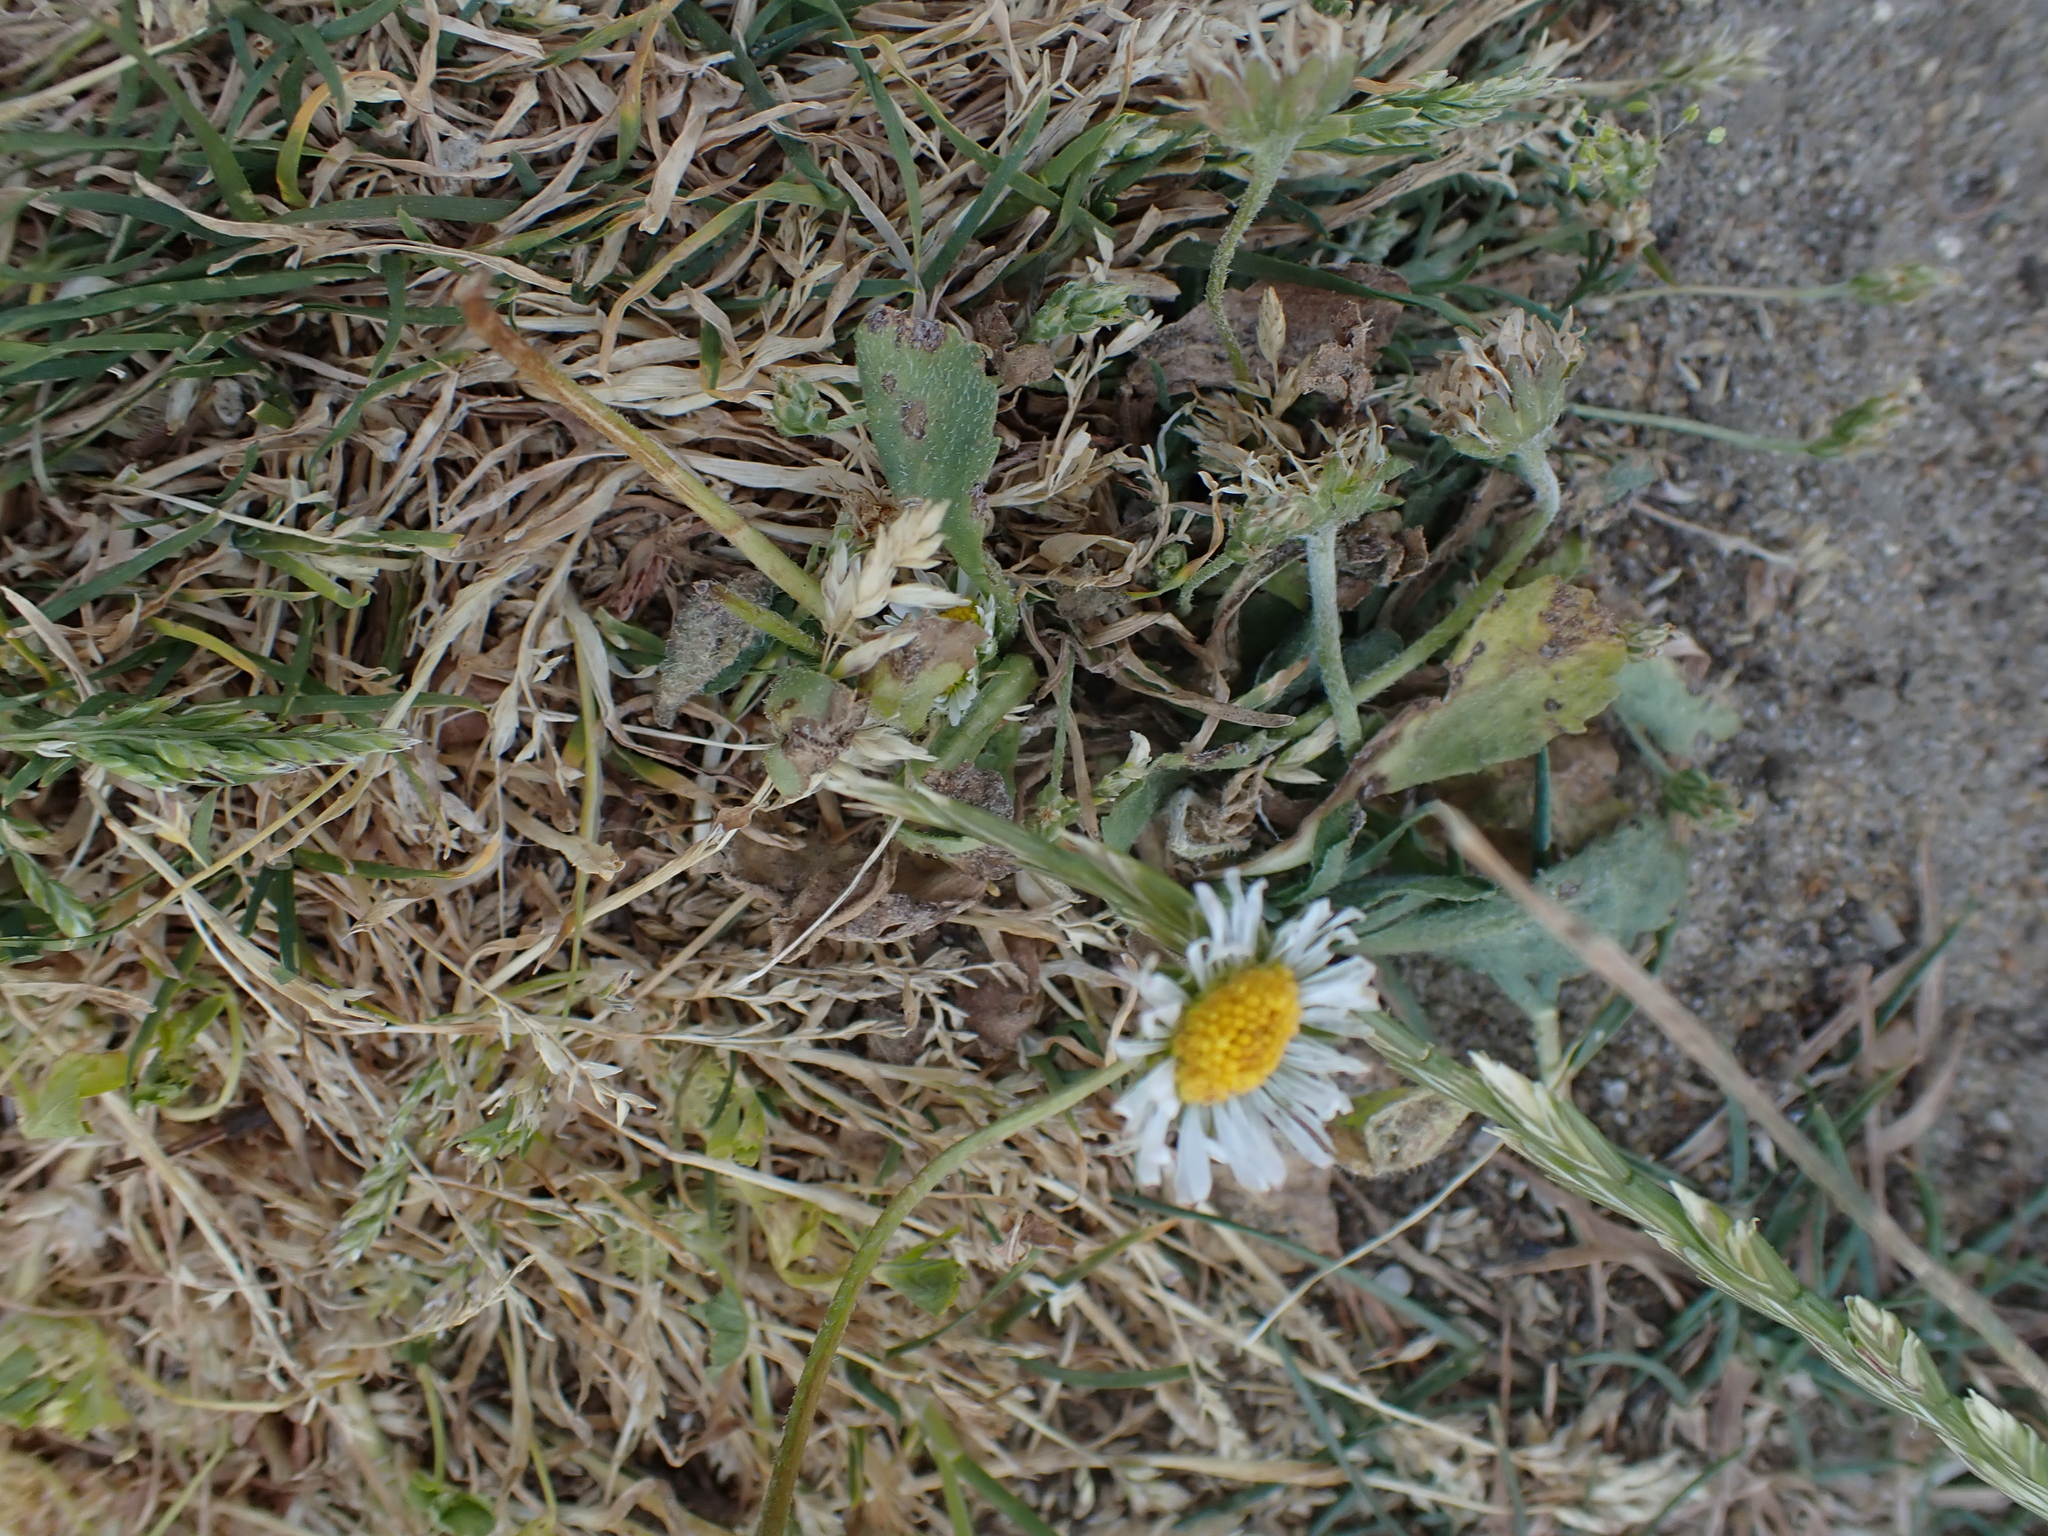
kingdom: Plantae
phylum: Tracheophyta
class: Magnoliopsida
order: Asterales
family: Asteraceae
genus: Bellis
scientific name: Bellis perennis
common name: Lawndaisy
